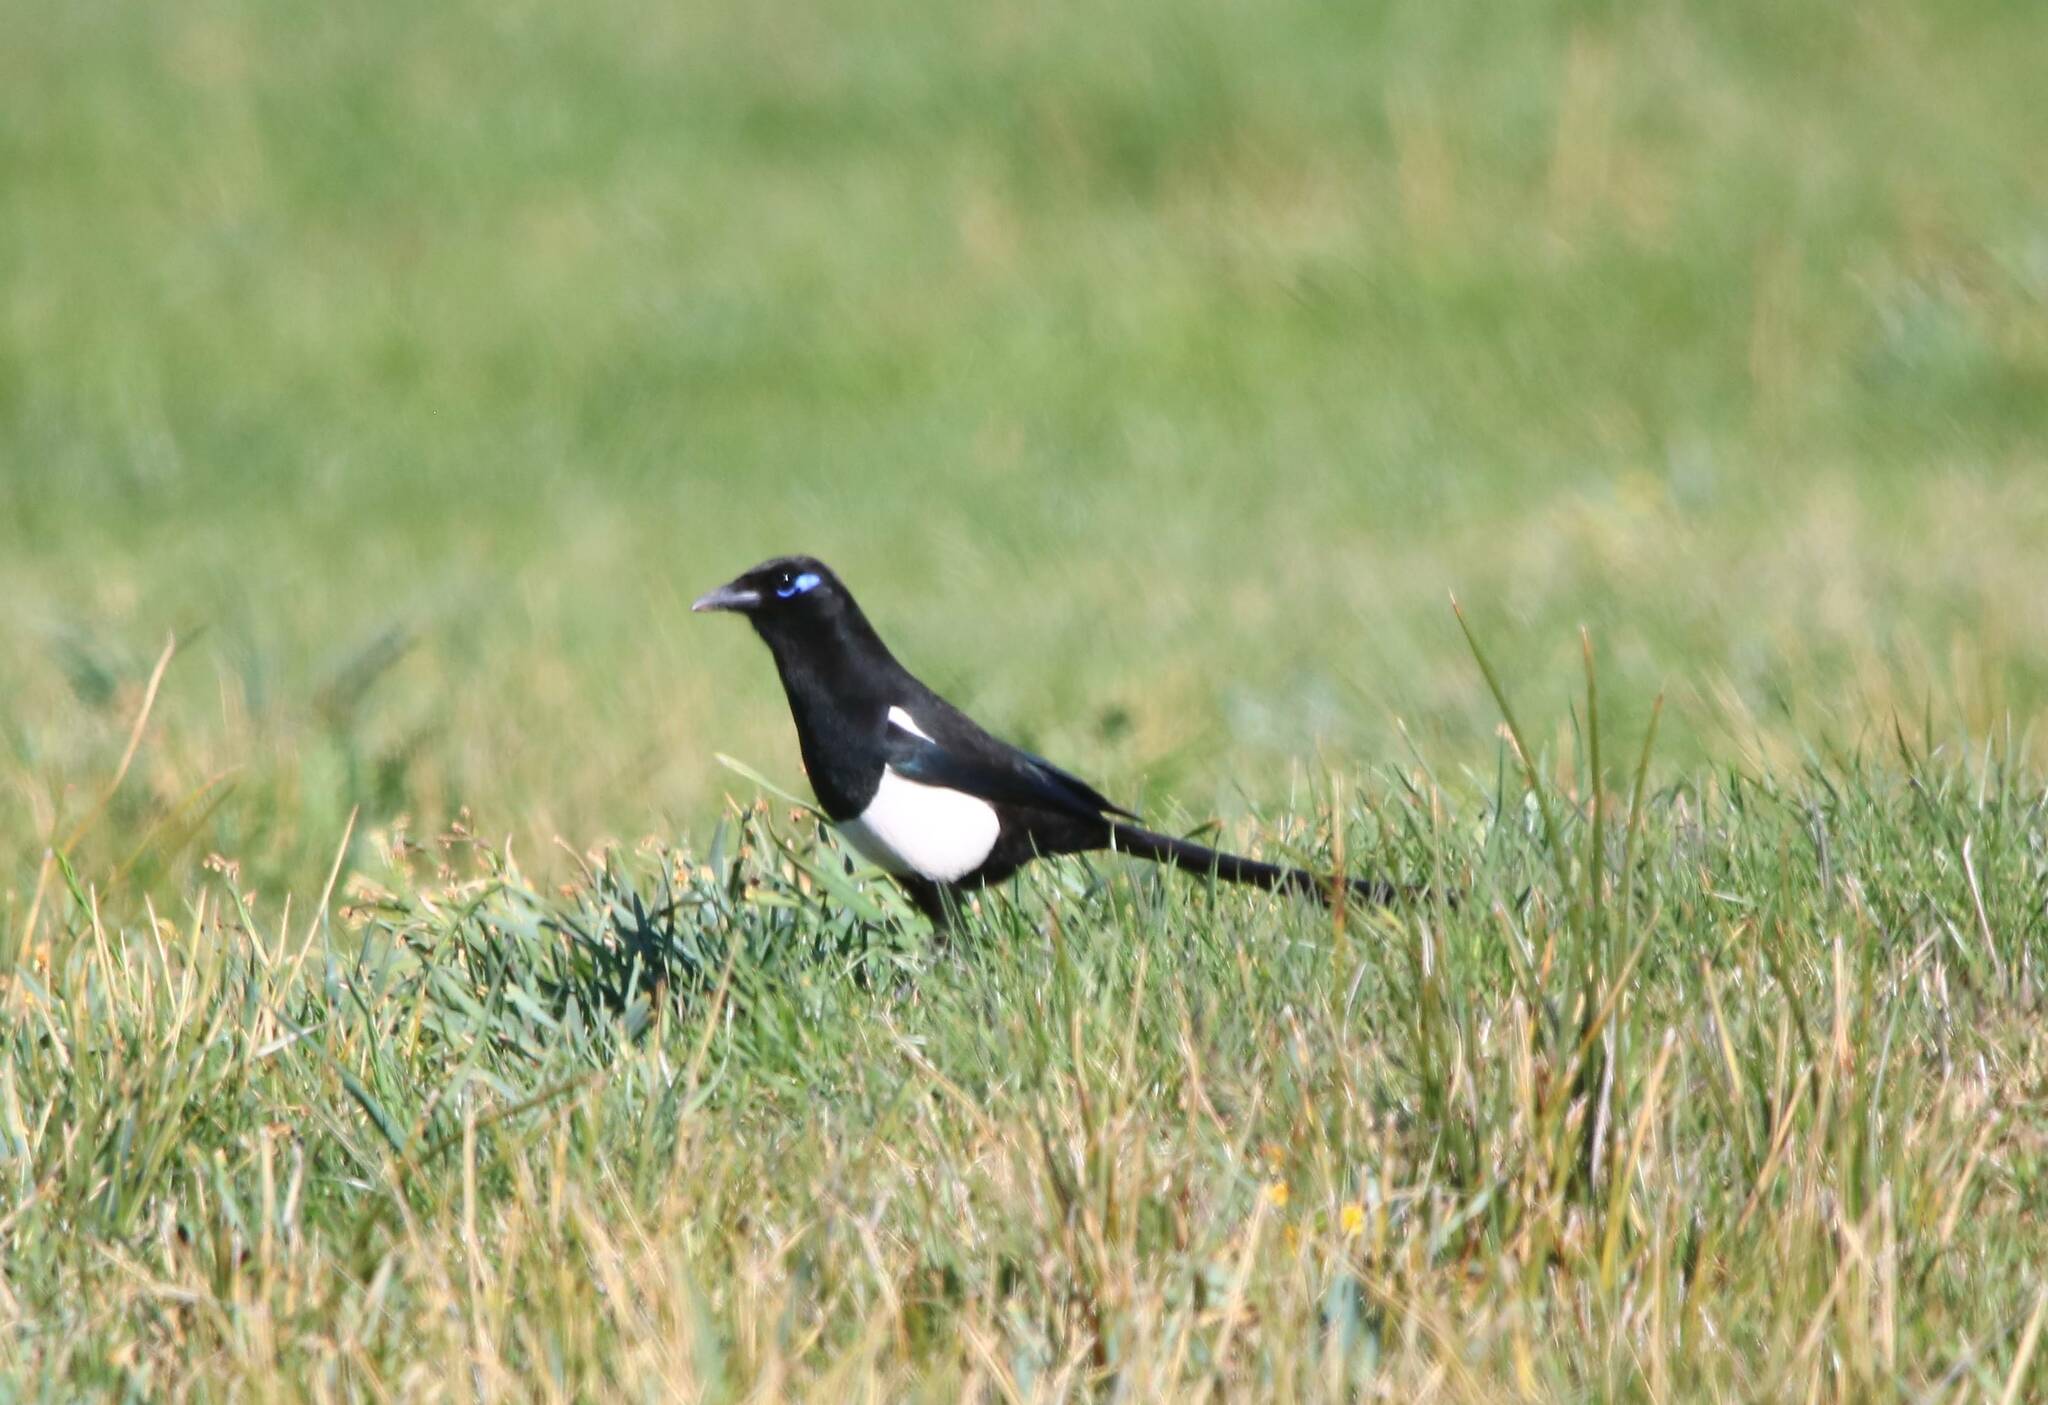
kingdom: Animalia
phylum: Chordata
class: Aves
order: Passeriformes
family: Corvidae
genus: Pica
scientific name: Pica mauritanica
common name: Maghreb magpie
